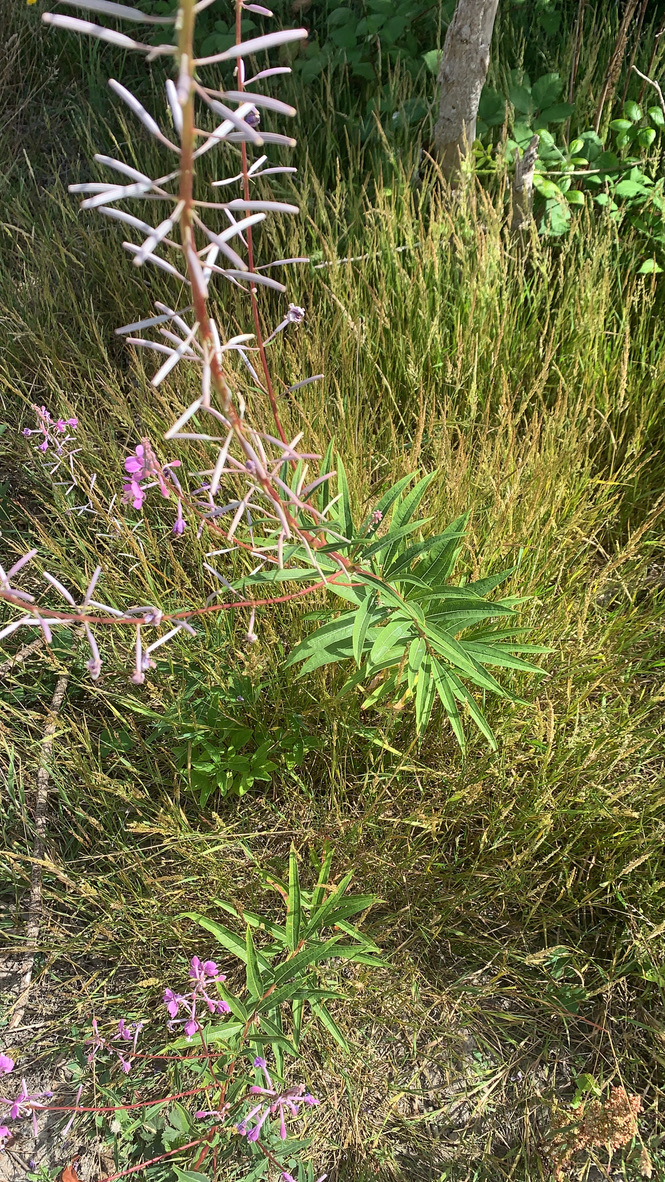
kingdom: Plantae
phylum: Tracheophyta
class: Magnoliopsida
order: Myrtales
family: Onagraceae
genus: Chamaenerion
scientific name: Chamaenerion angustifolium
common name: Fireweed
